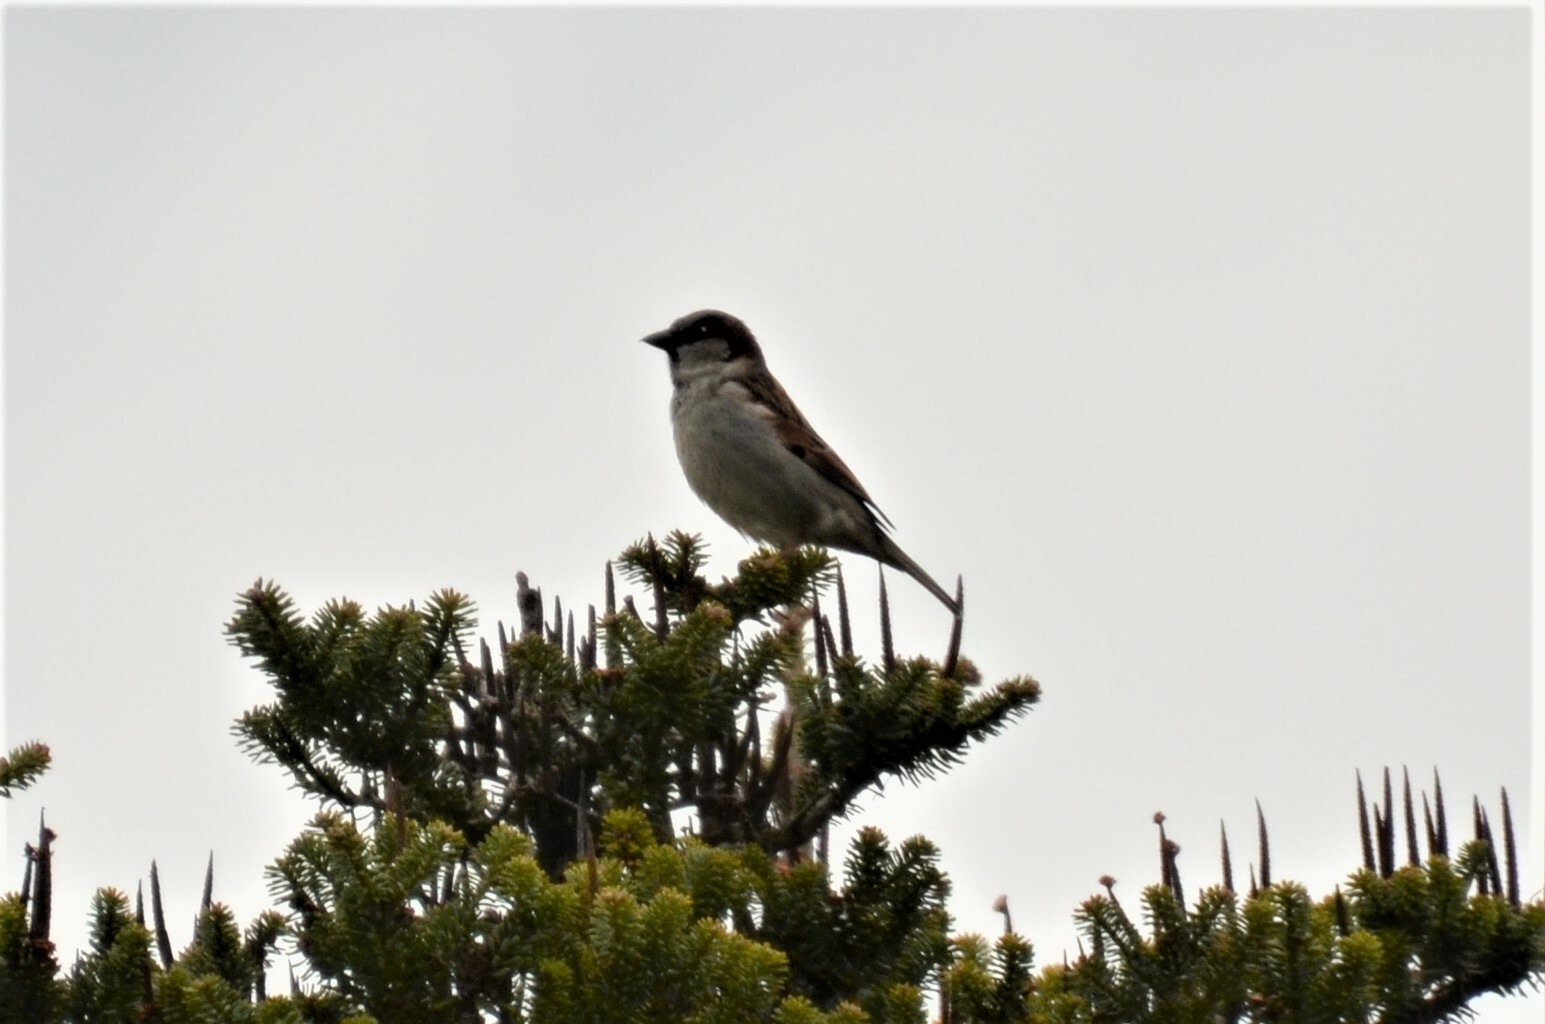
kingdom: Animalia
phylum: Chordata
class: Aves
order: Passeriformes
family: Passeridae
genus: Passer
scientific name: Passer domesticus
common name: House sparrow
